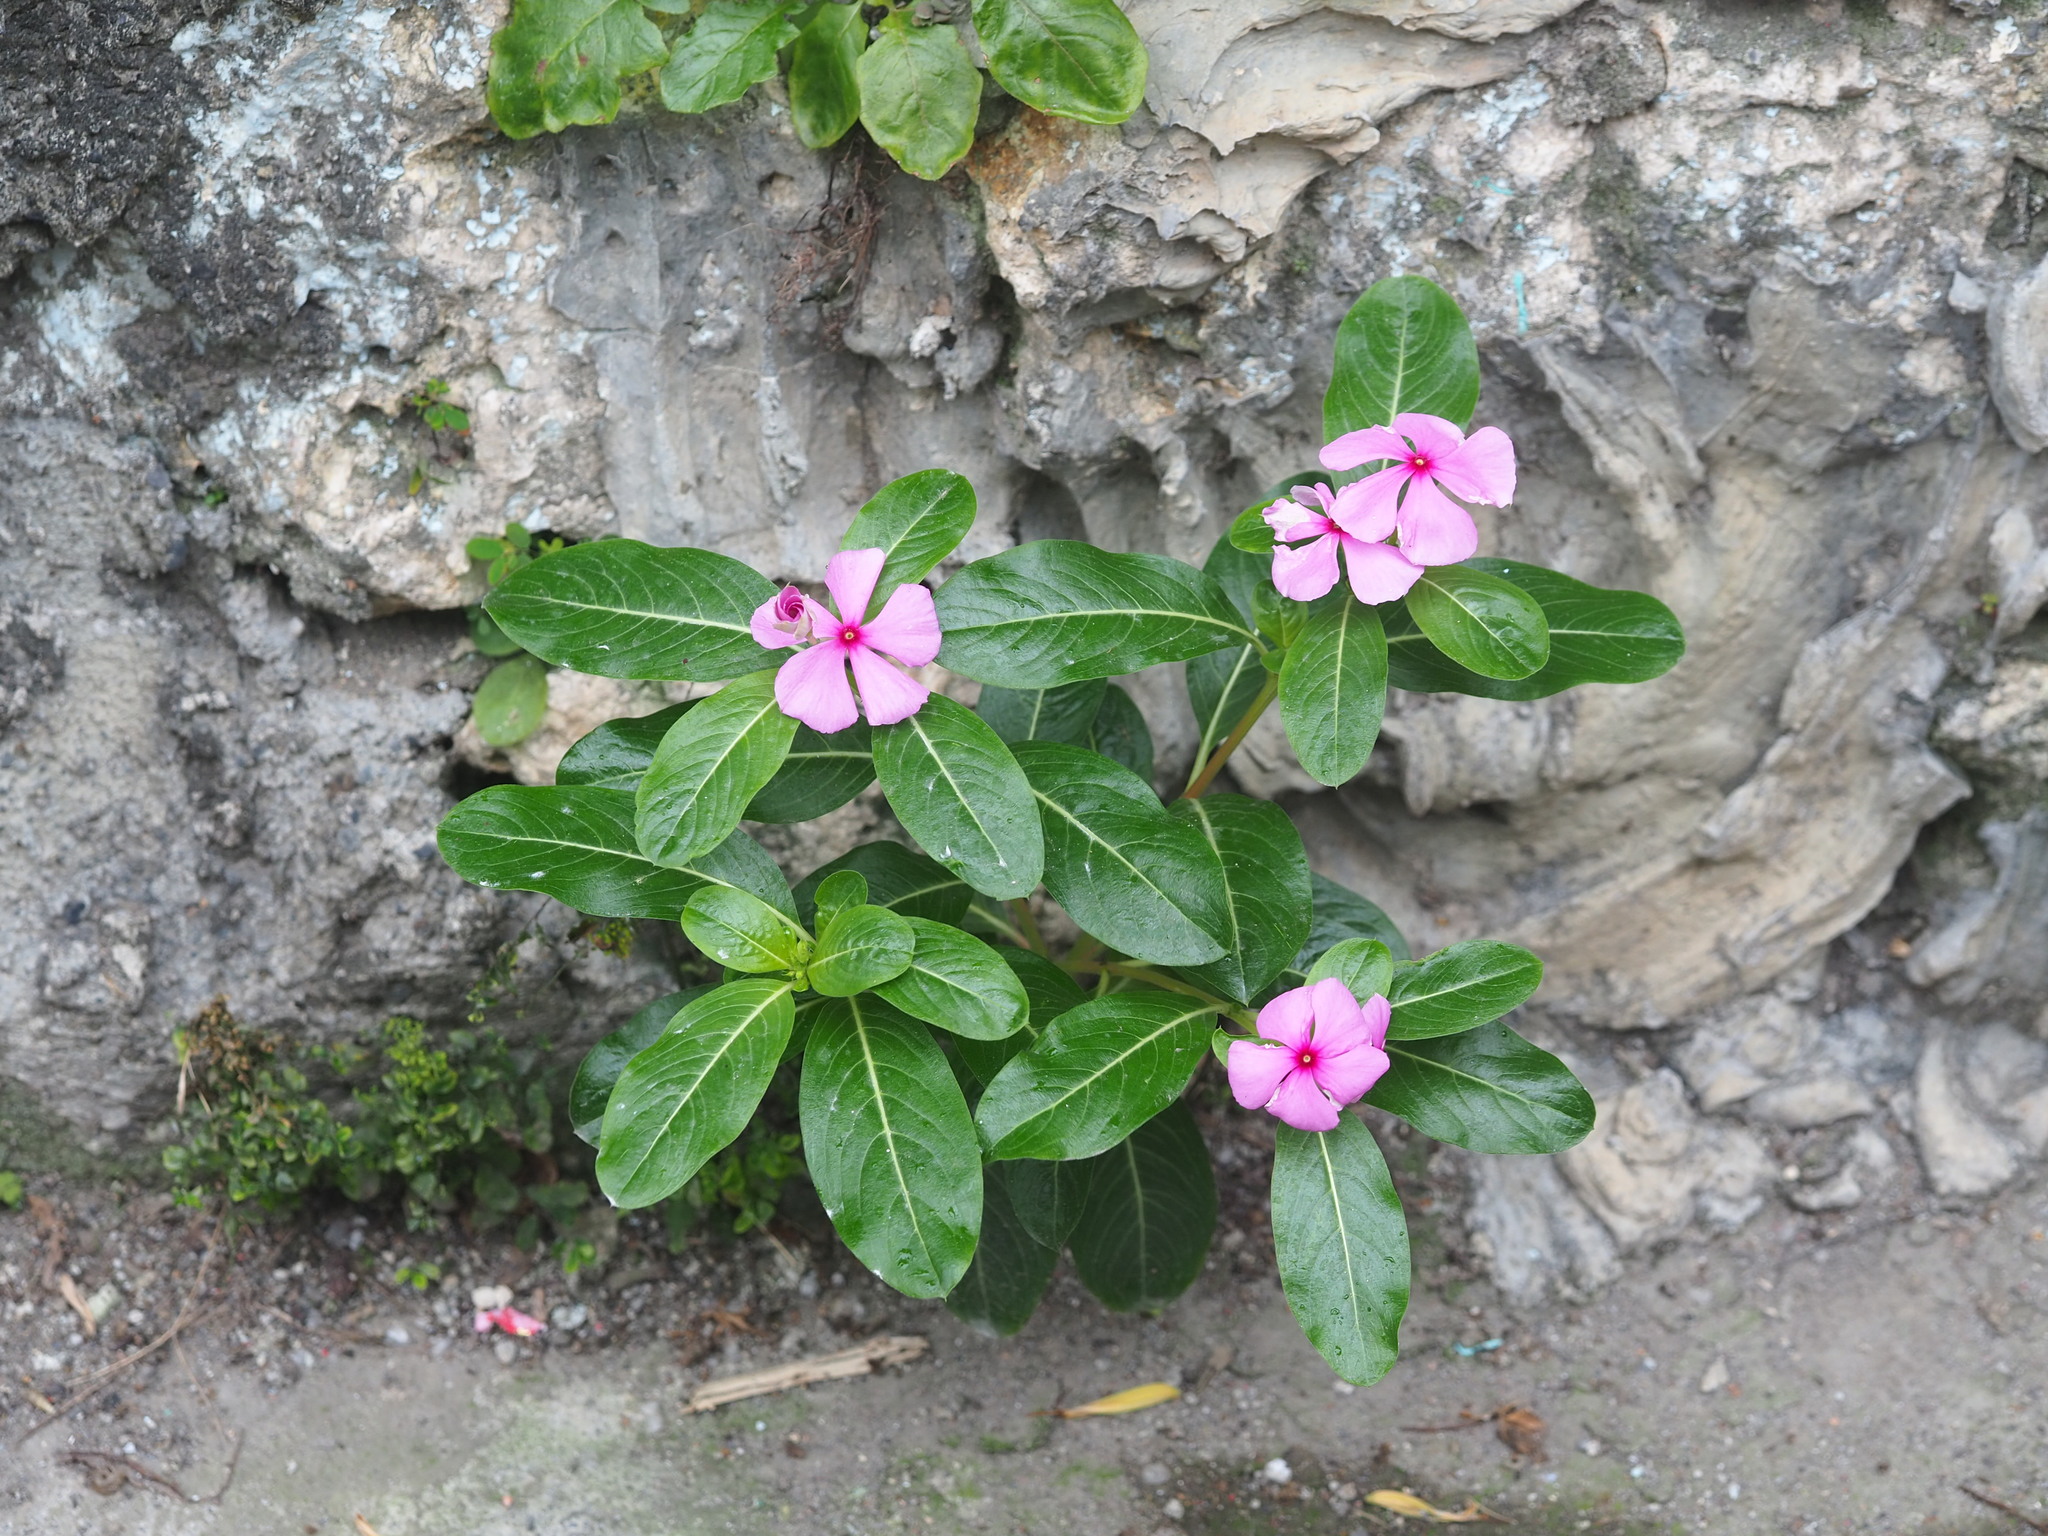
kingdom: Plantae
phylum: Tracheophyta
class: Magnoliopsida
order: Gentianales
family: Apocynaceae
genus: Catharanthus
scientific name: Catharanthus roseus
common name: Madagascar periwinkle
